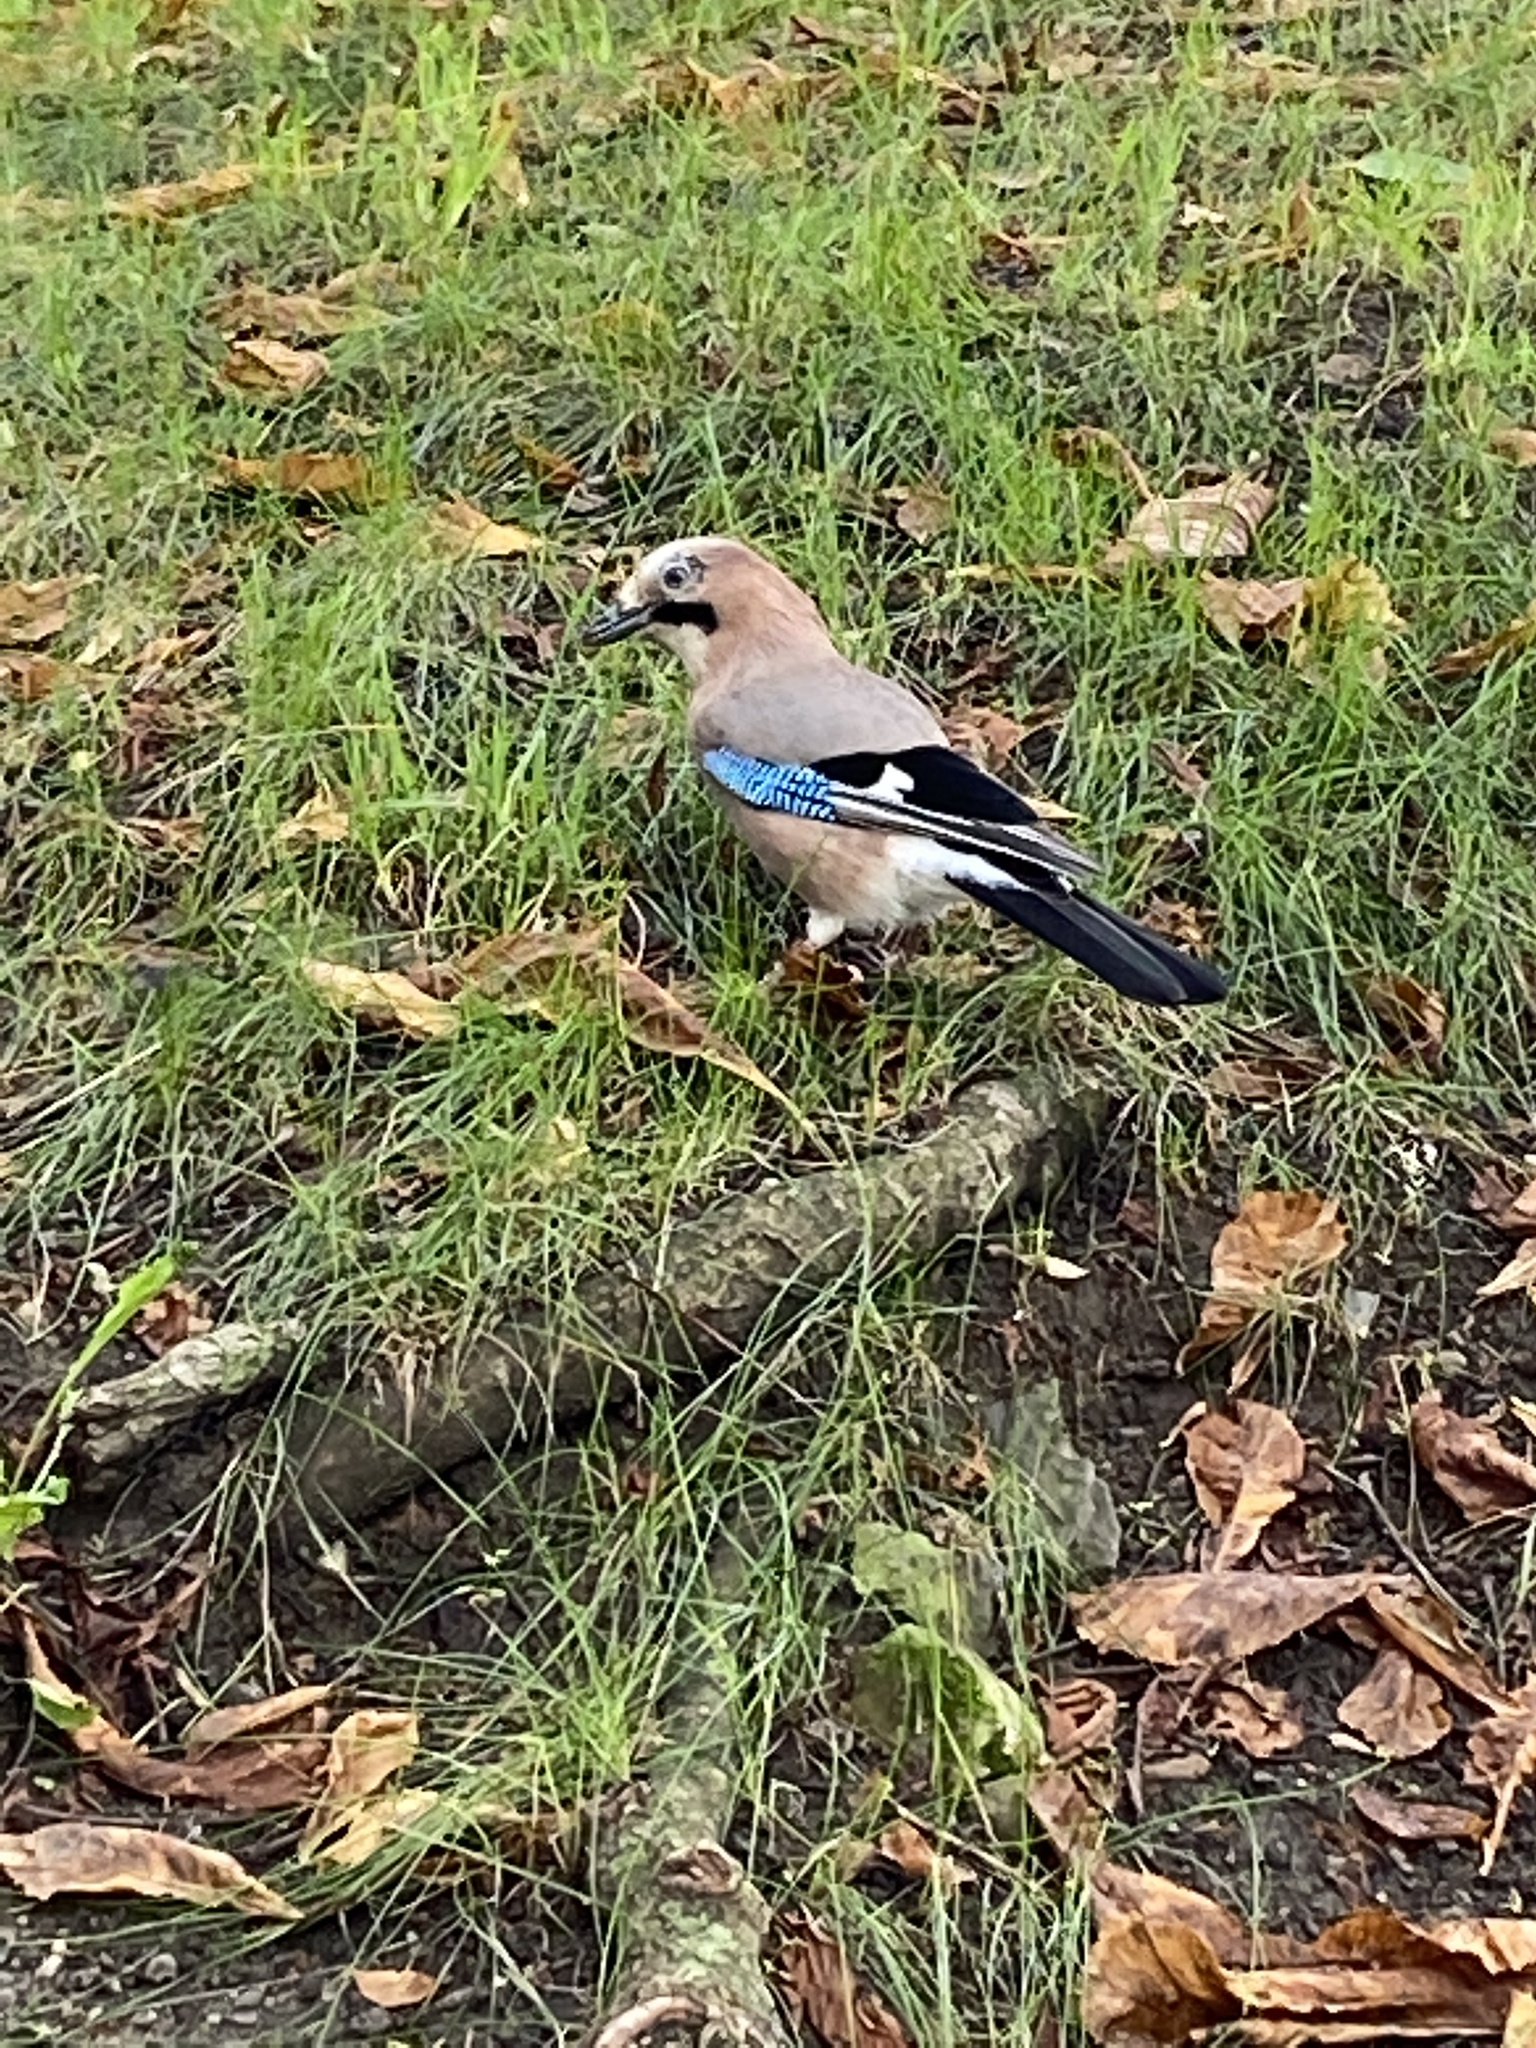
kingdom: Animalia
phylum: Chordata
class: Aves
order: Passeriformes
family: Corvidae
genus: Garrulus
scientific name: Garrulus glandarius
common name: Eurasian jay
